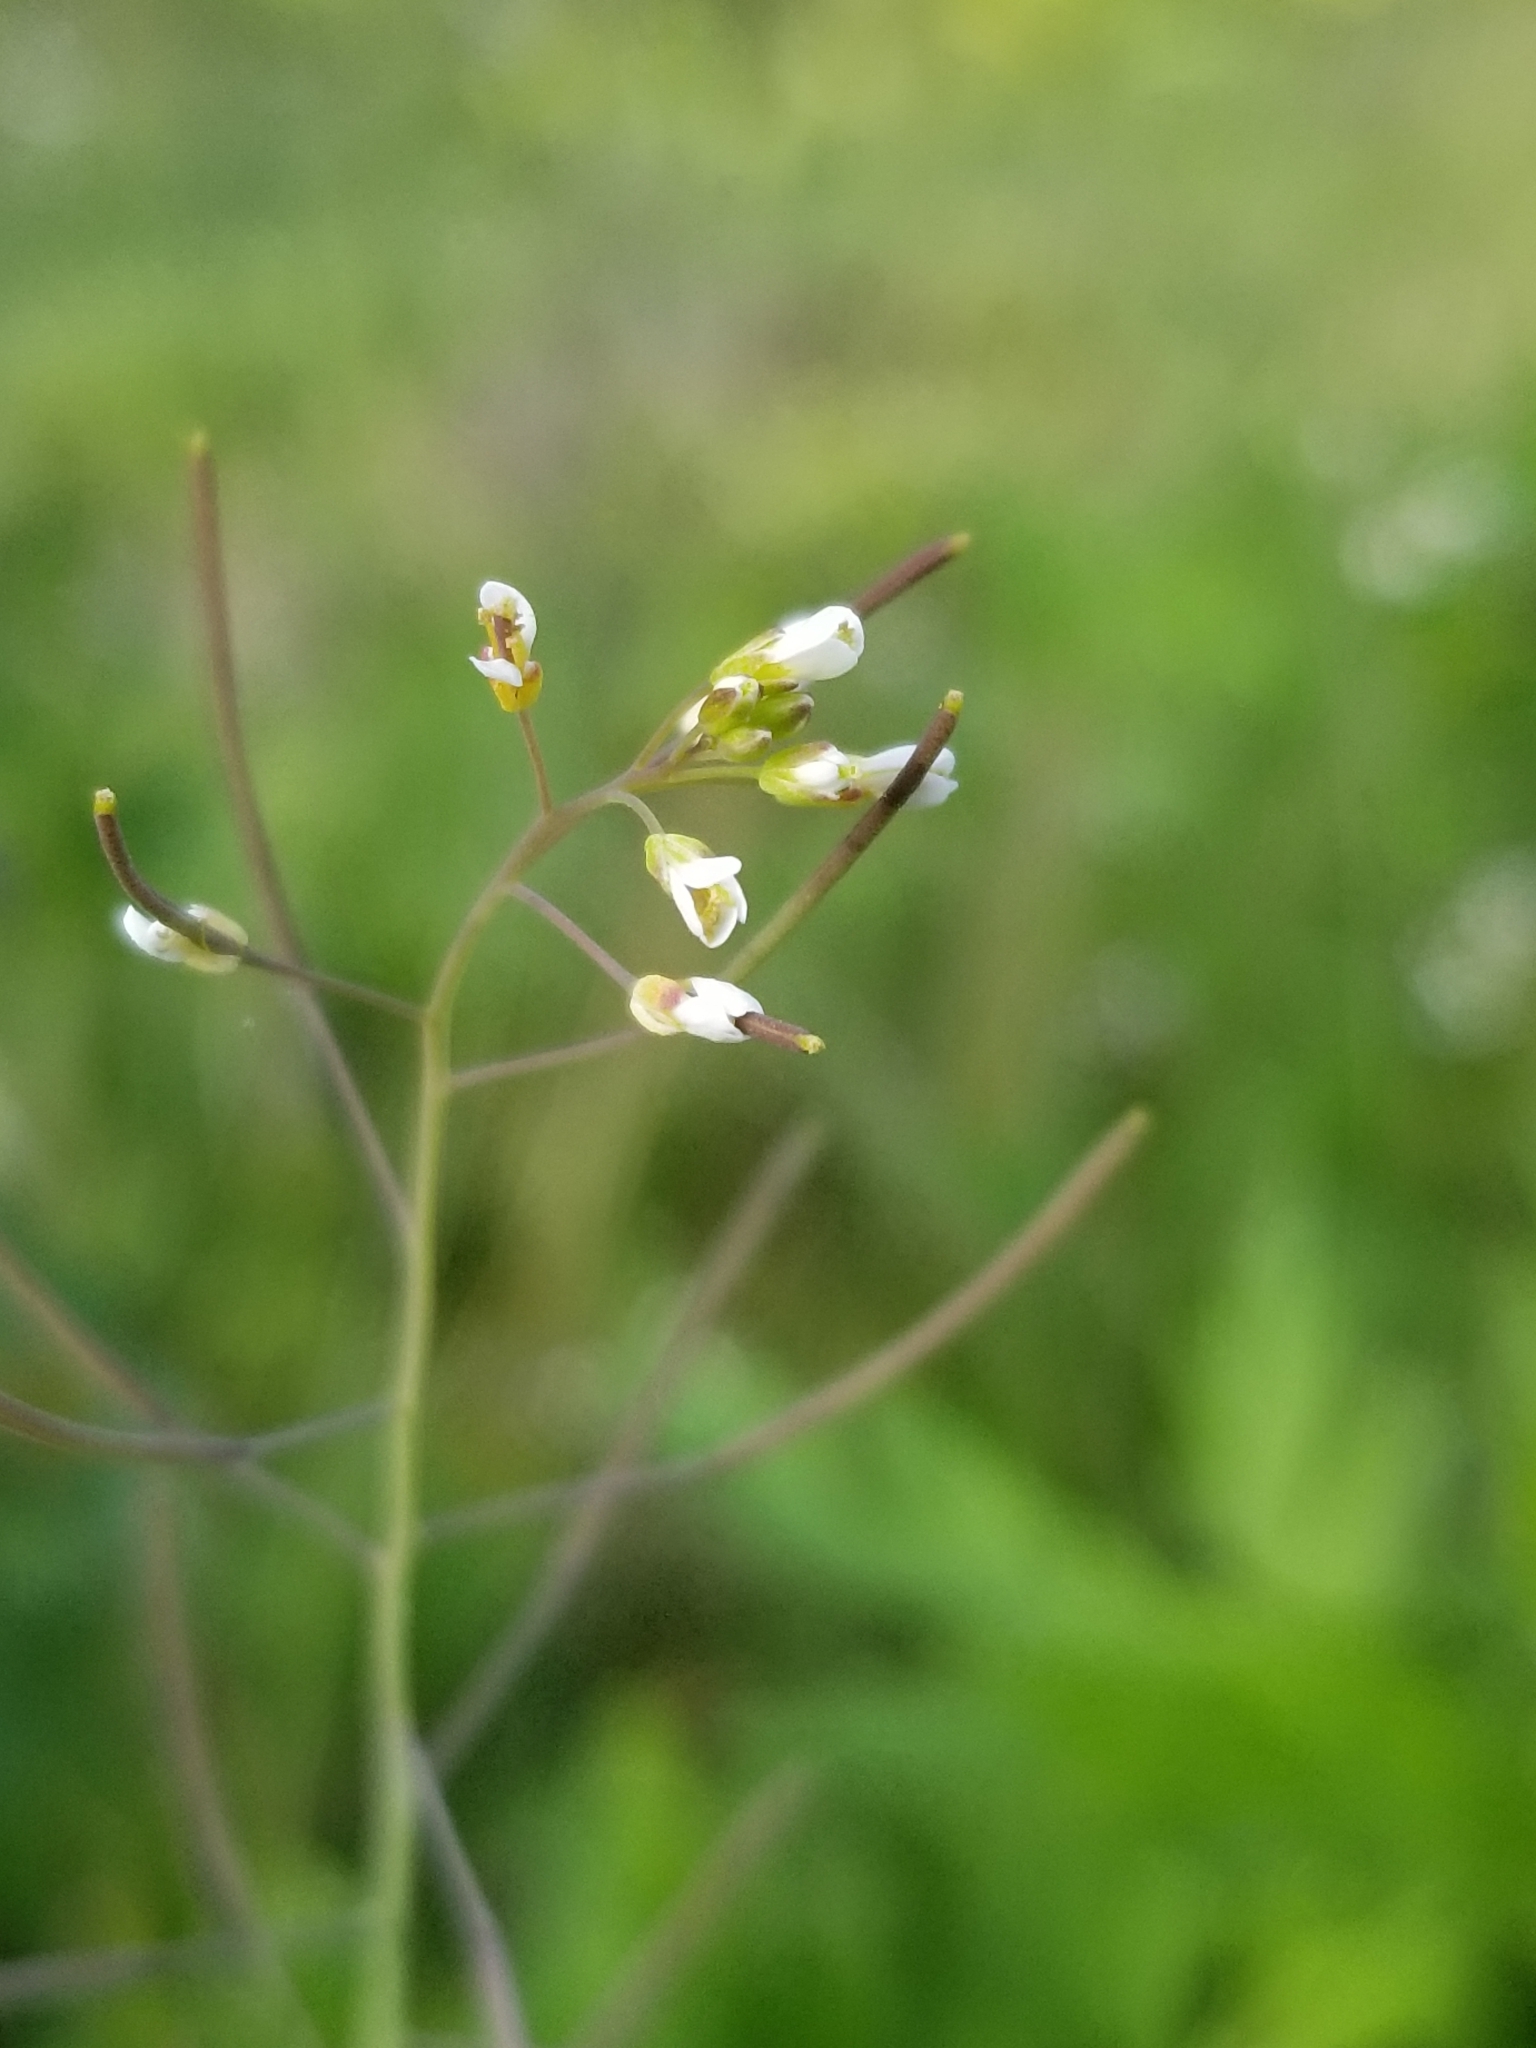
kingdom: Plantae
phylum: Tracheophyta
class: Magnoliopsida
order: Brassicales
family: Brassicaceae
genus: Arabidopsis
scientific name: Arabidopsis thaliana
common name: Thale cress
